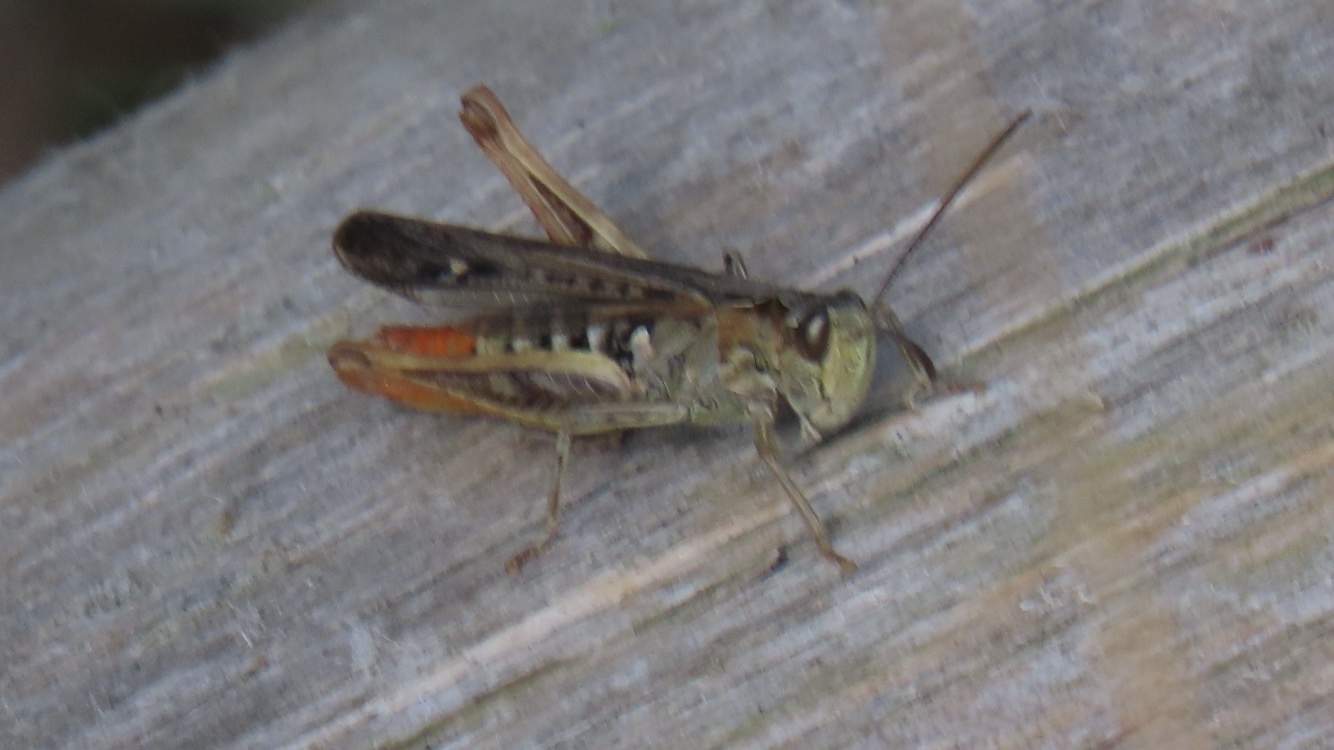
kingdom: Animalia
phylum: Arthropoda
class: Insecta
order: Orthoptera
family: Acrididae
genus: Chorthippus
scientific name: Chorthippus biguttulus
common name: Bow-winged grasshopper
